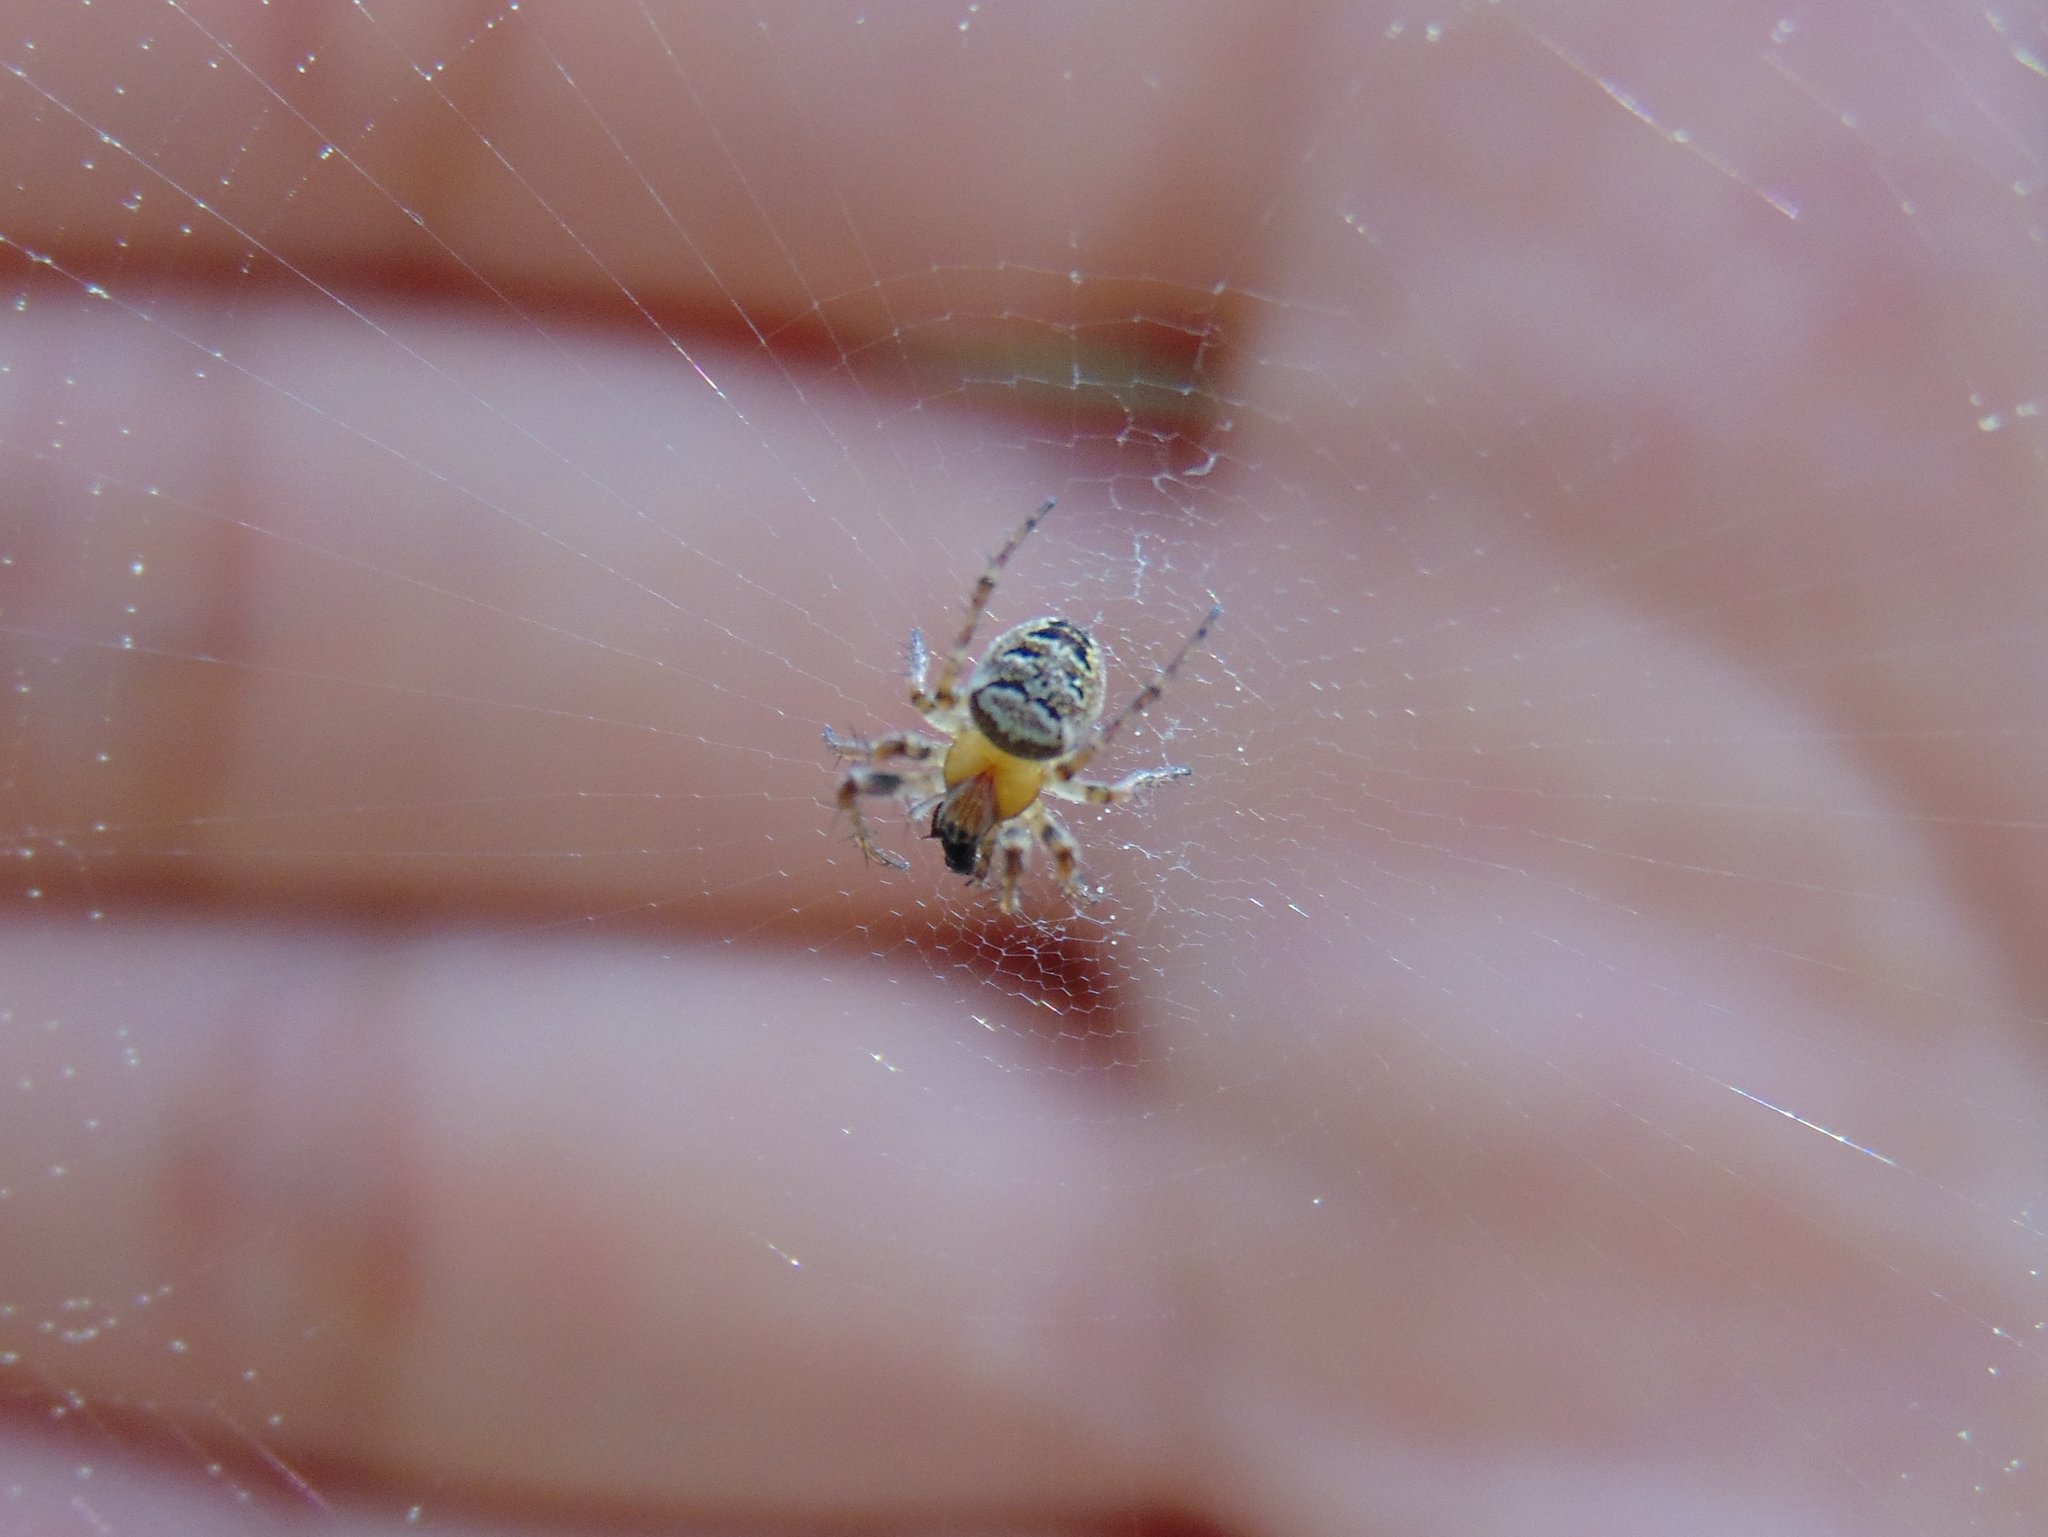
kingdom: Animalia
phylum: Arthropoda
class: Arachnida
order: Araneae
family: Araneidae
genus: Zilla
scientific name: Zilla diodia
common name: Zilla diodia
